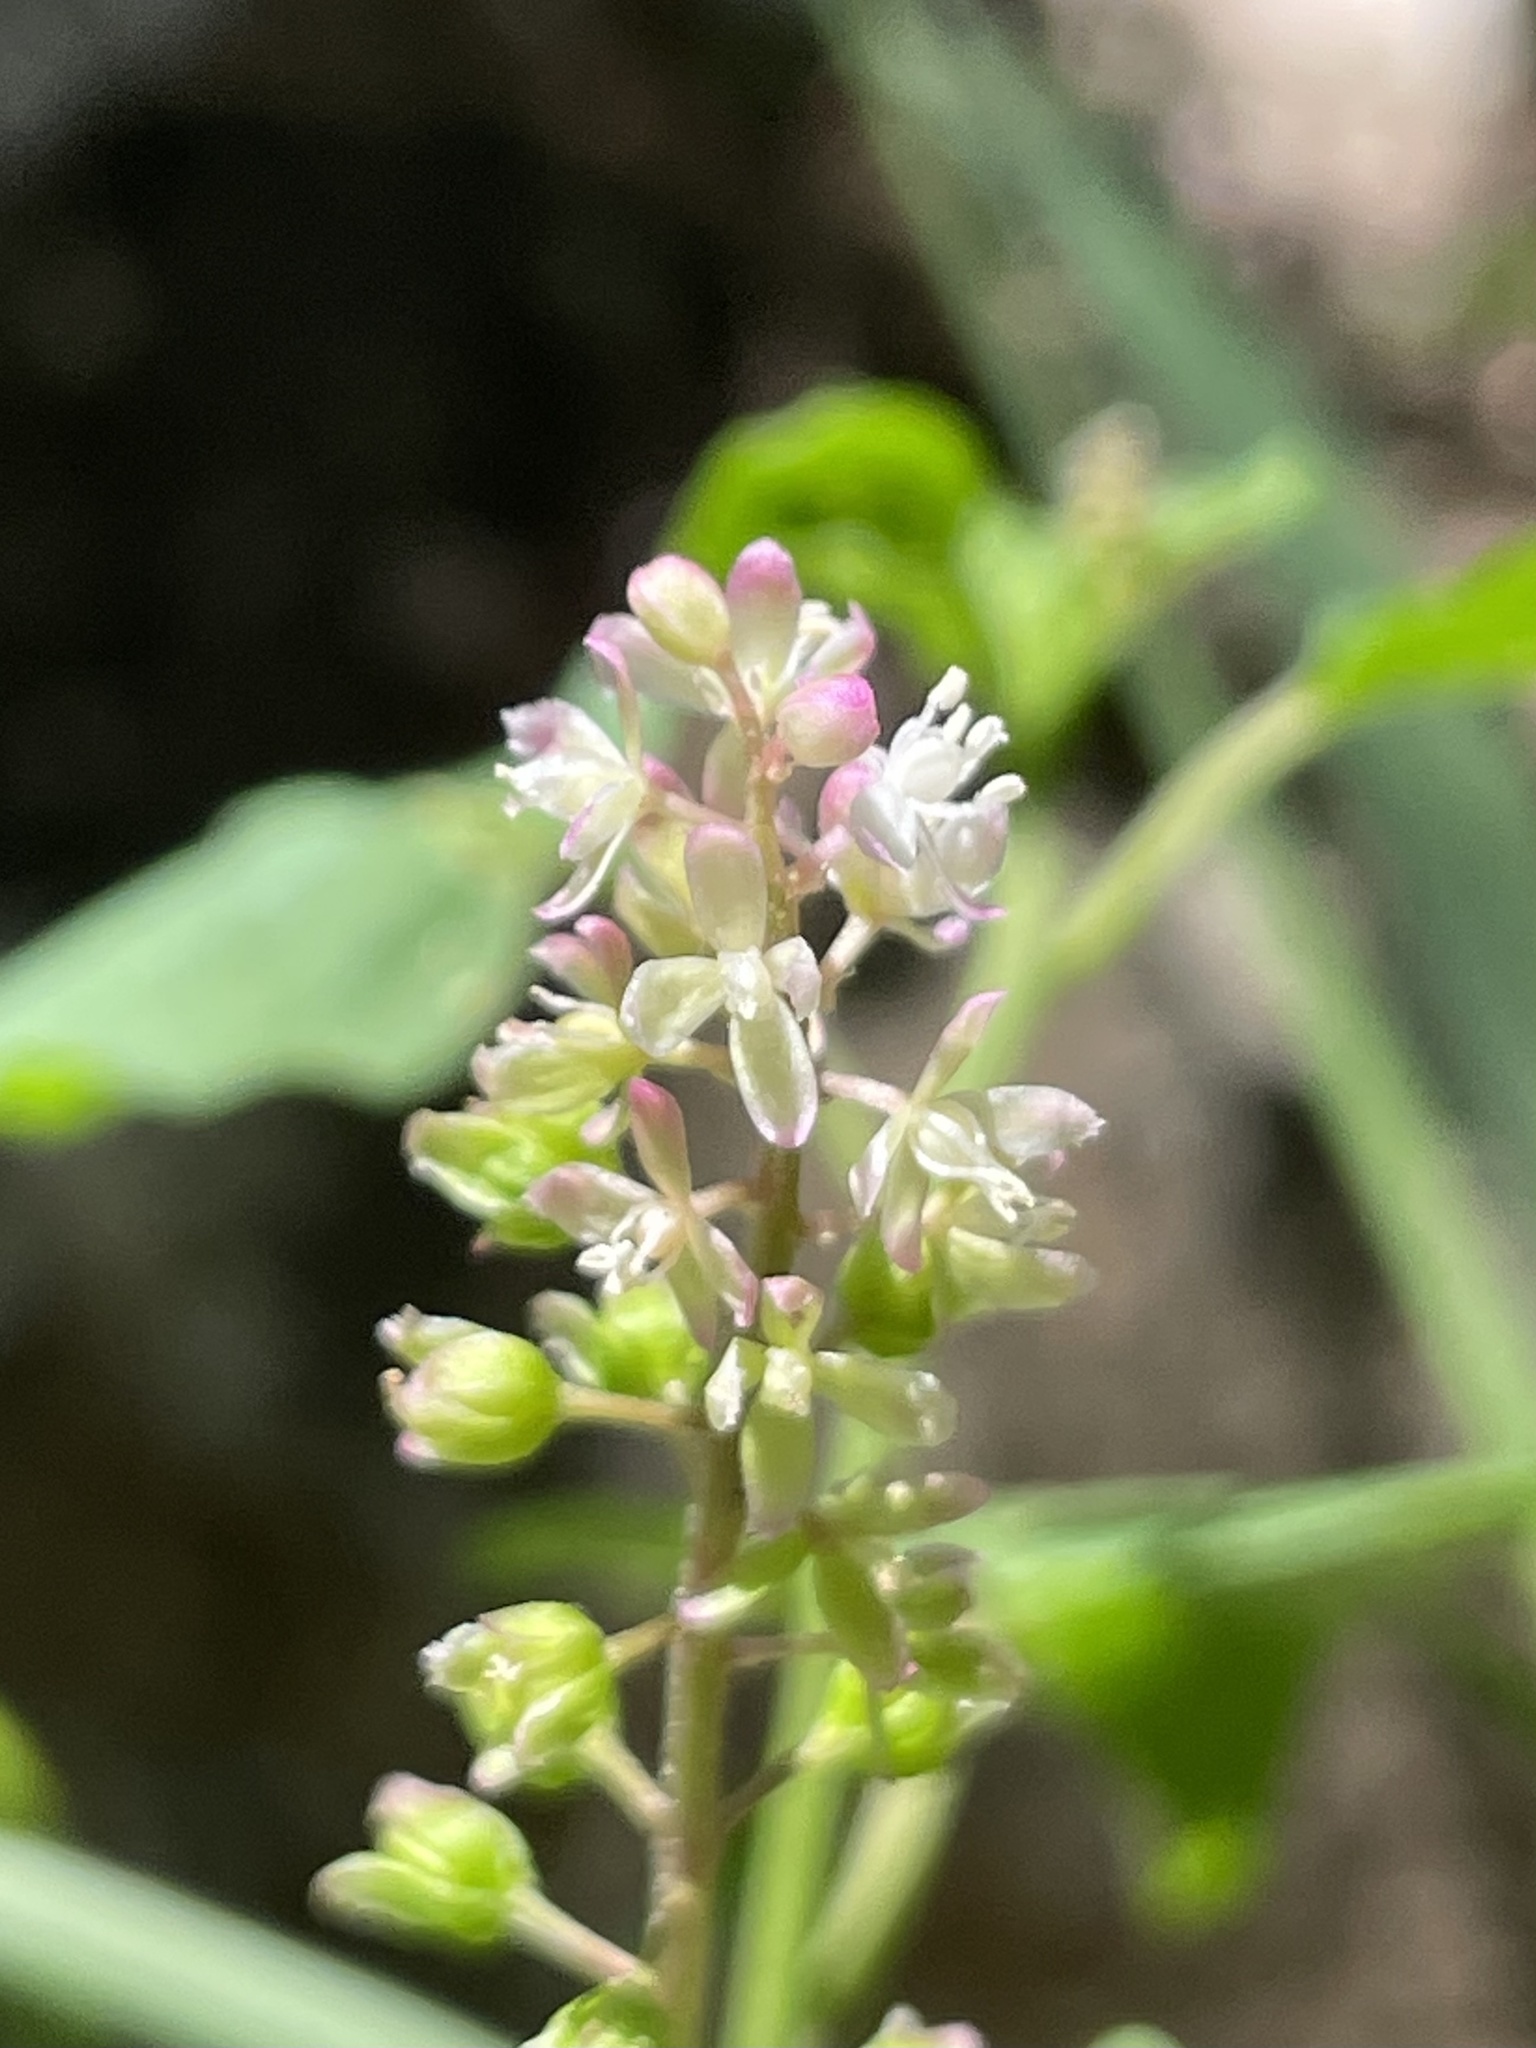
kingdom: Plantae
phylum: Tracheophyta
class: Magnoliopsida
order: Caryophyllales
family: Phytolaccaceae
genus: Rivina
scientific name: Rivina humilis
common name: Rougeplant
